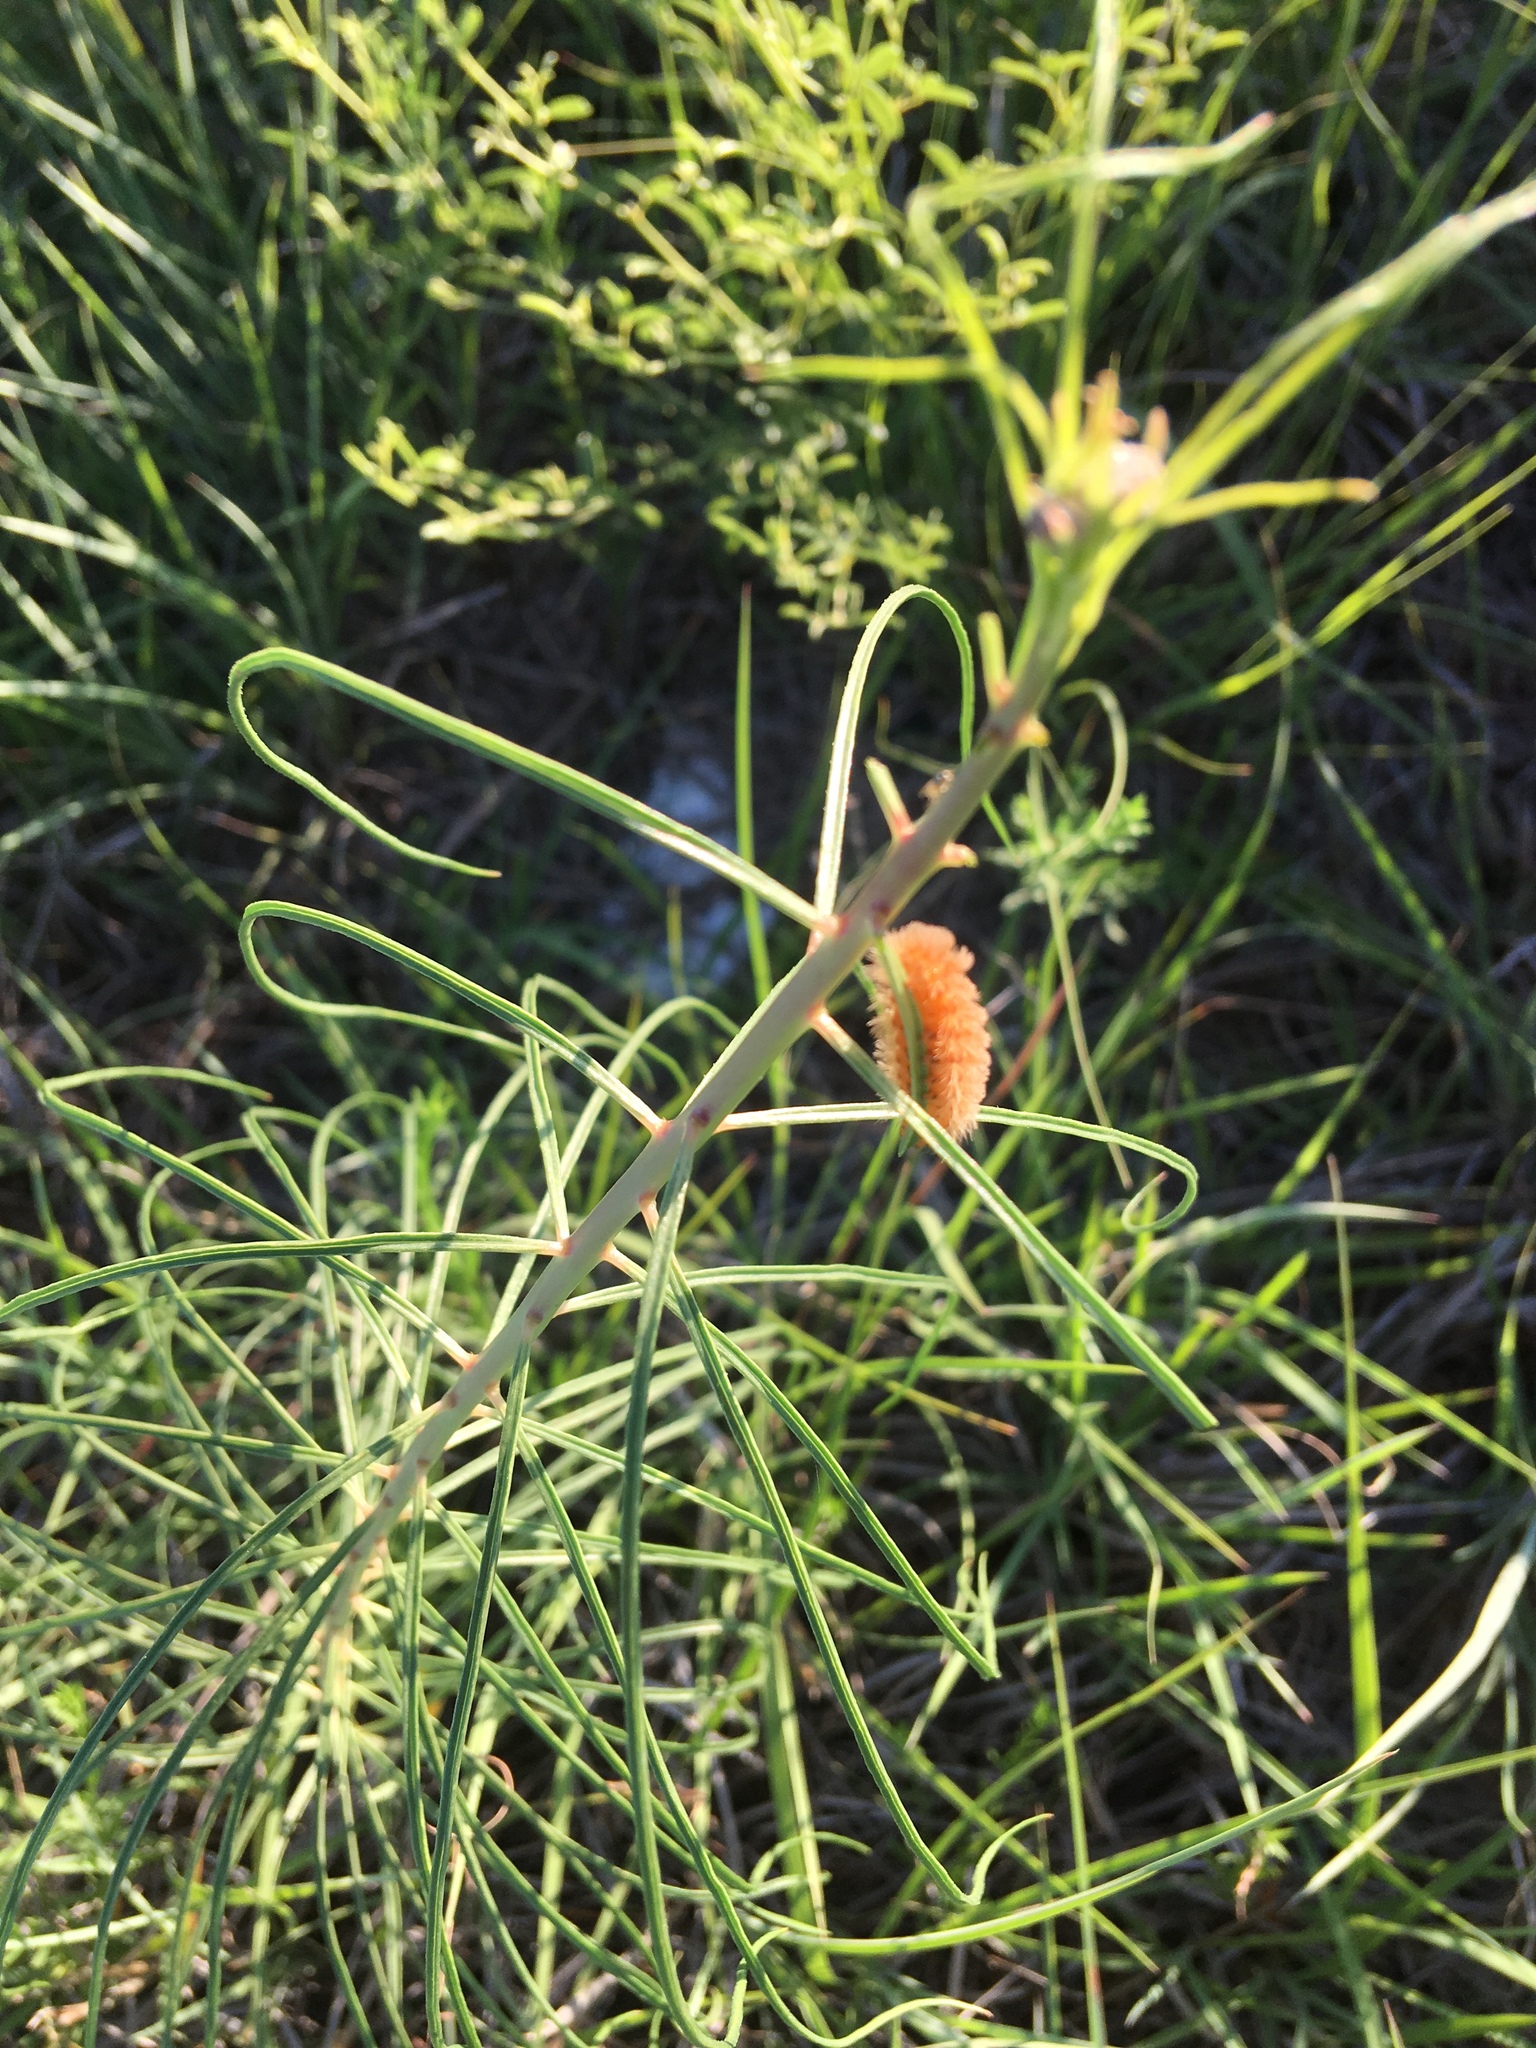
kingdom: Animalia
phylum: Arthropoda
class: Insecta
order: Lepidoptera
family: Erebidae
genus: Cycnia
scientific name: Cycnia collaris
